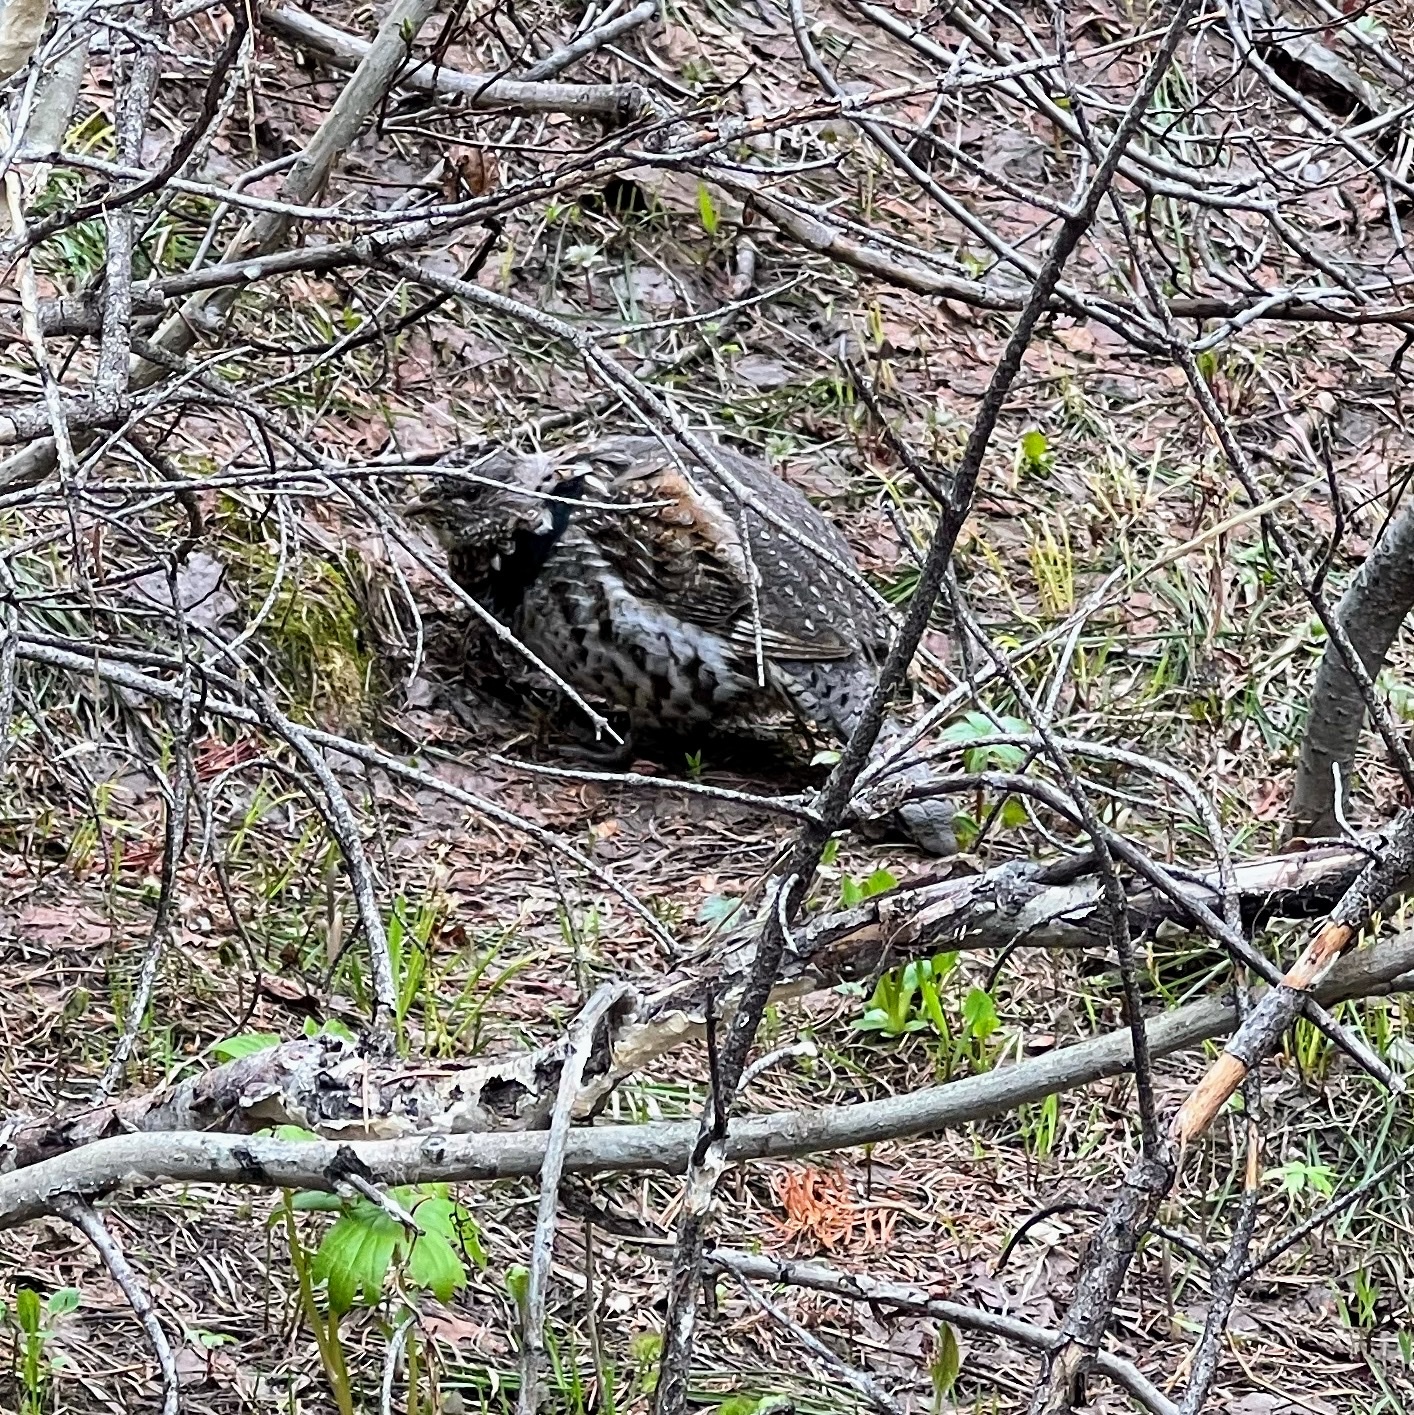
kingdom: Animalia
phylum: Chordata
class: Aves
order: Galliformes
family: Phasianidae
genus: Bonasa
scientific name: Bonasa umbellus
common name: Ruffed grouse
